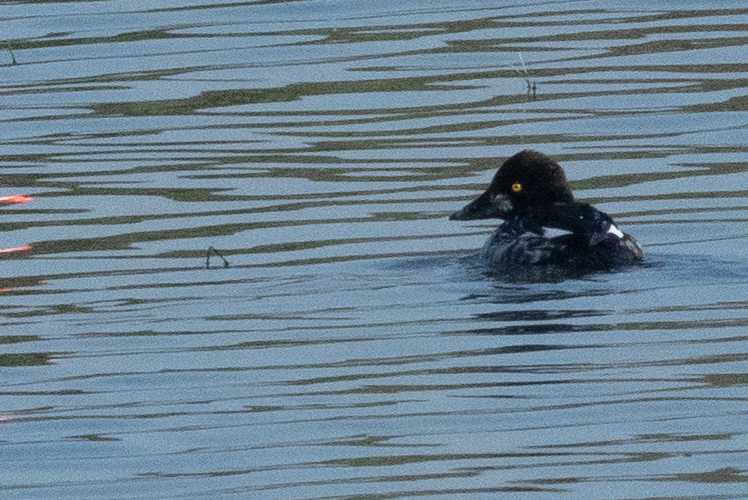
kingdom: Animalia
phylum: Chordata
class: Aves
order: Anseriformes
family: Anatidae
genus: Bucephala
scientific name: Bucephala clangula
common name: Common goldeneye
